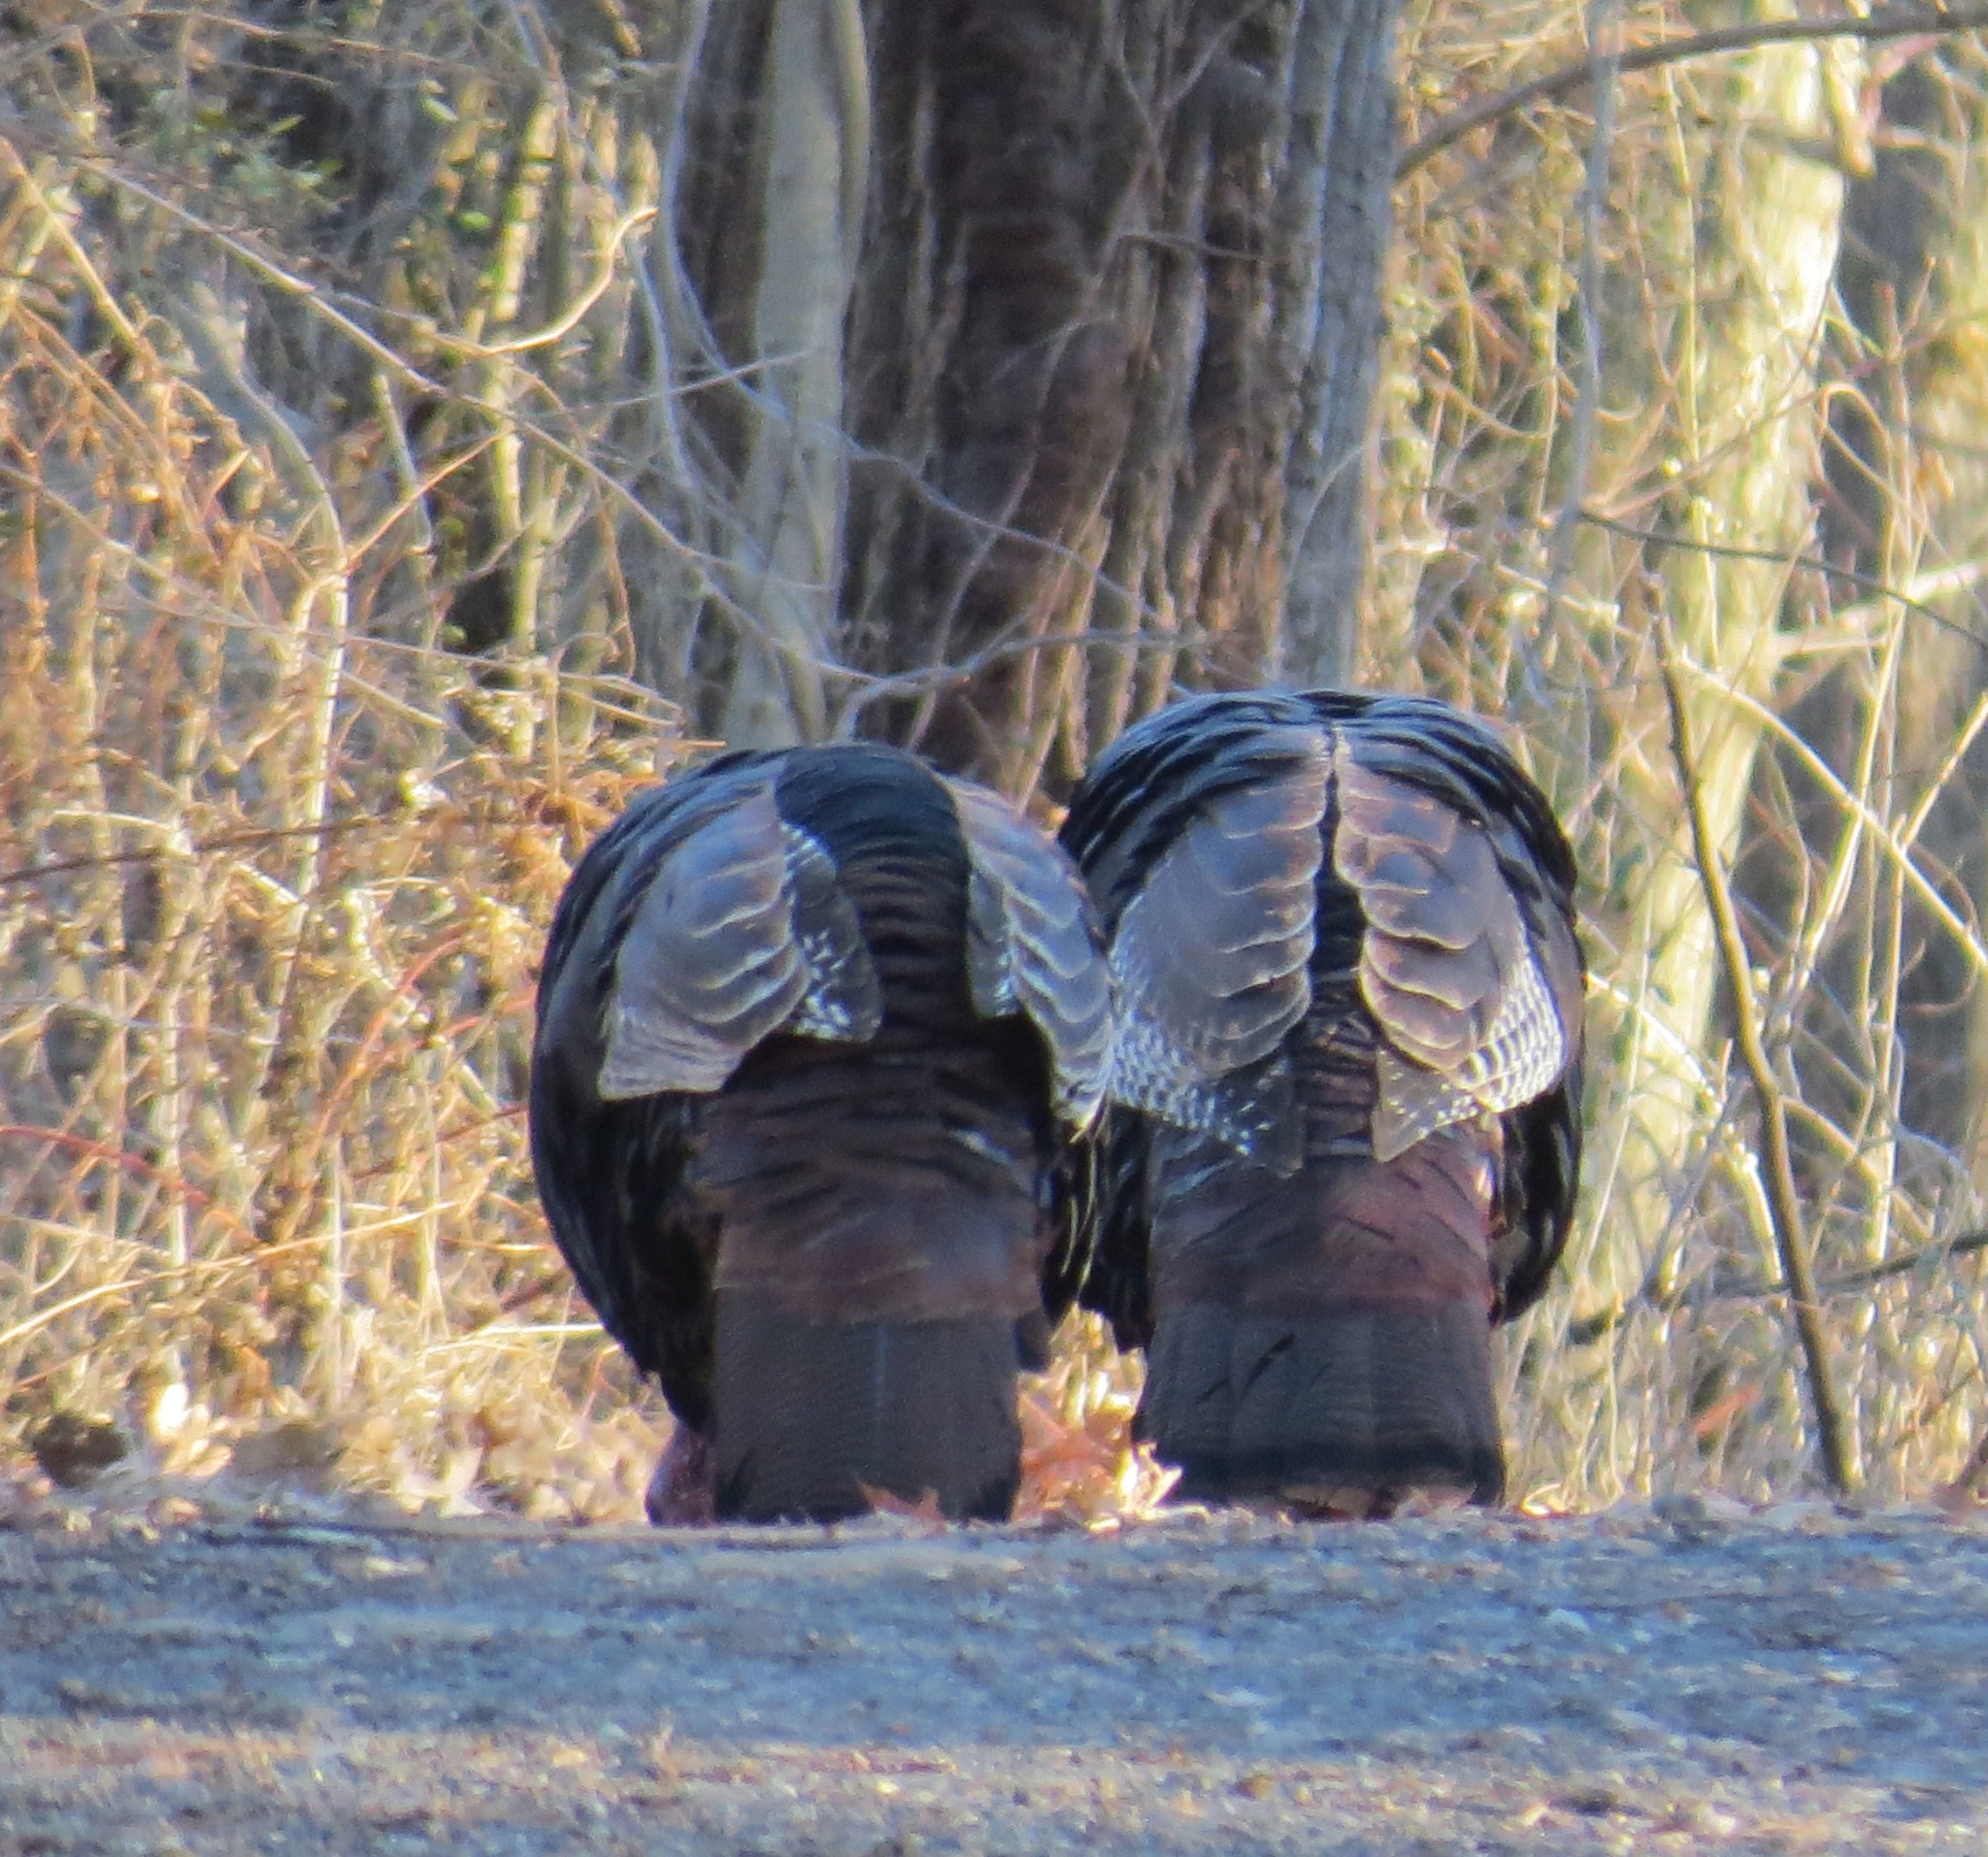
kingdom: Animalia
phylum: Chordata
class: Aves
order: Galliformes
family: Phasianidae
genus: Meleagris
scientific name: Meleagris gallopavo
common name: Wild turkey
